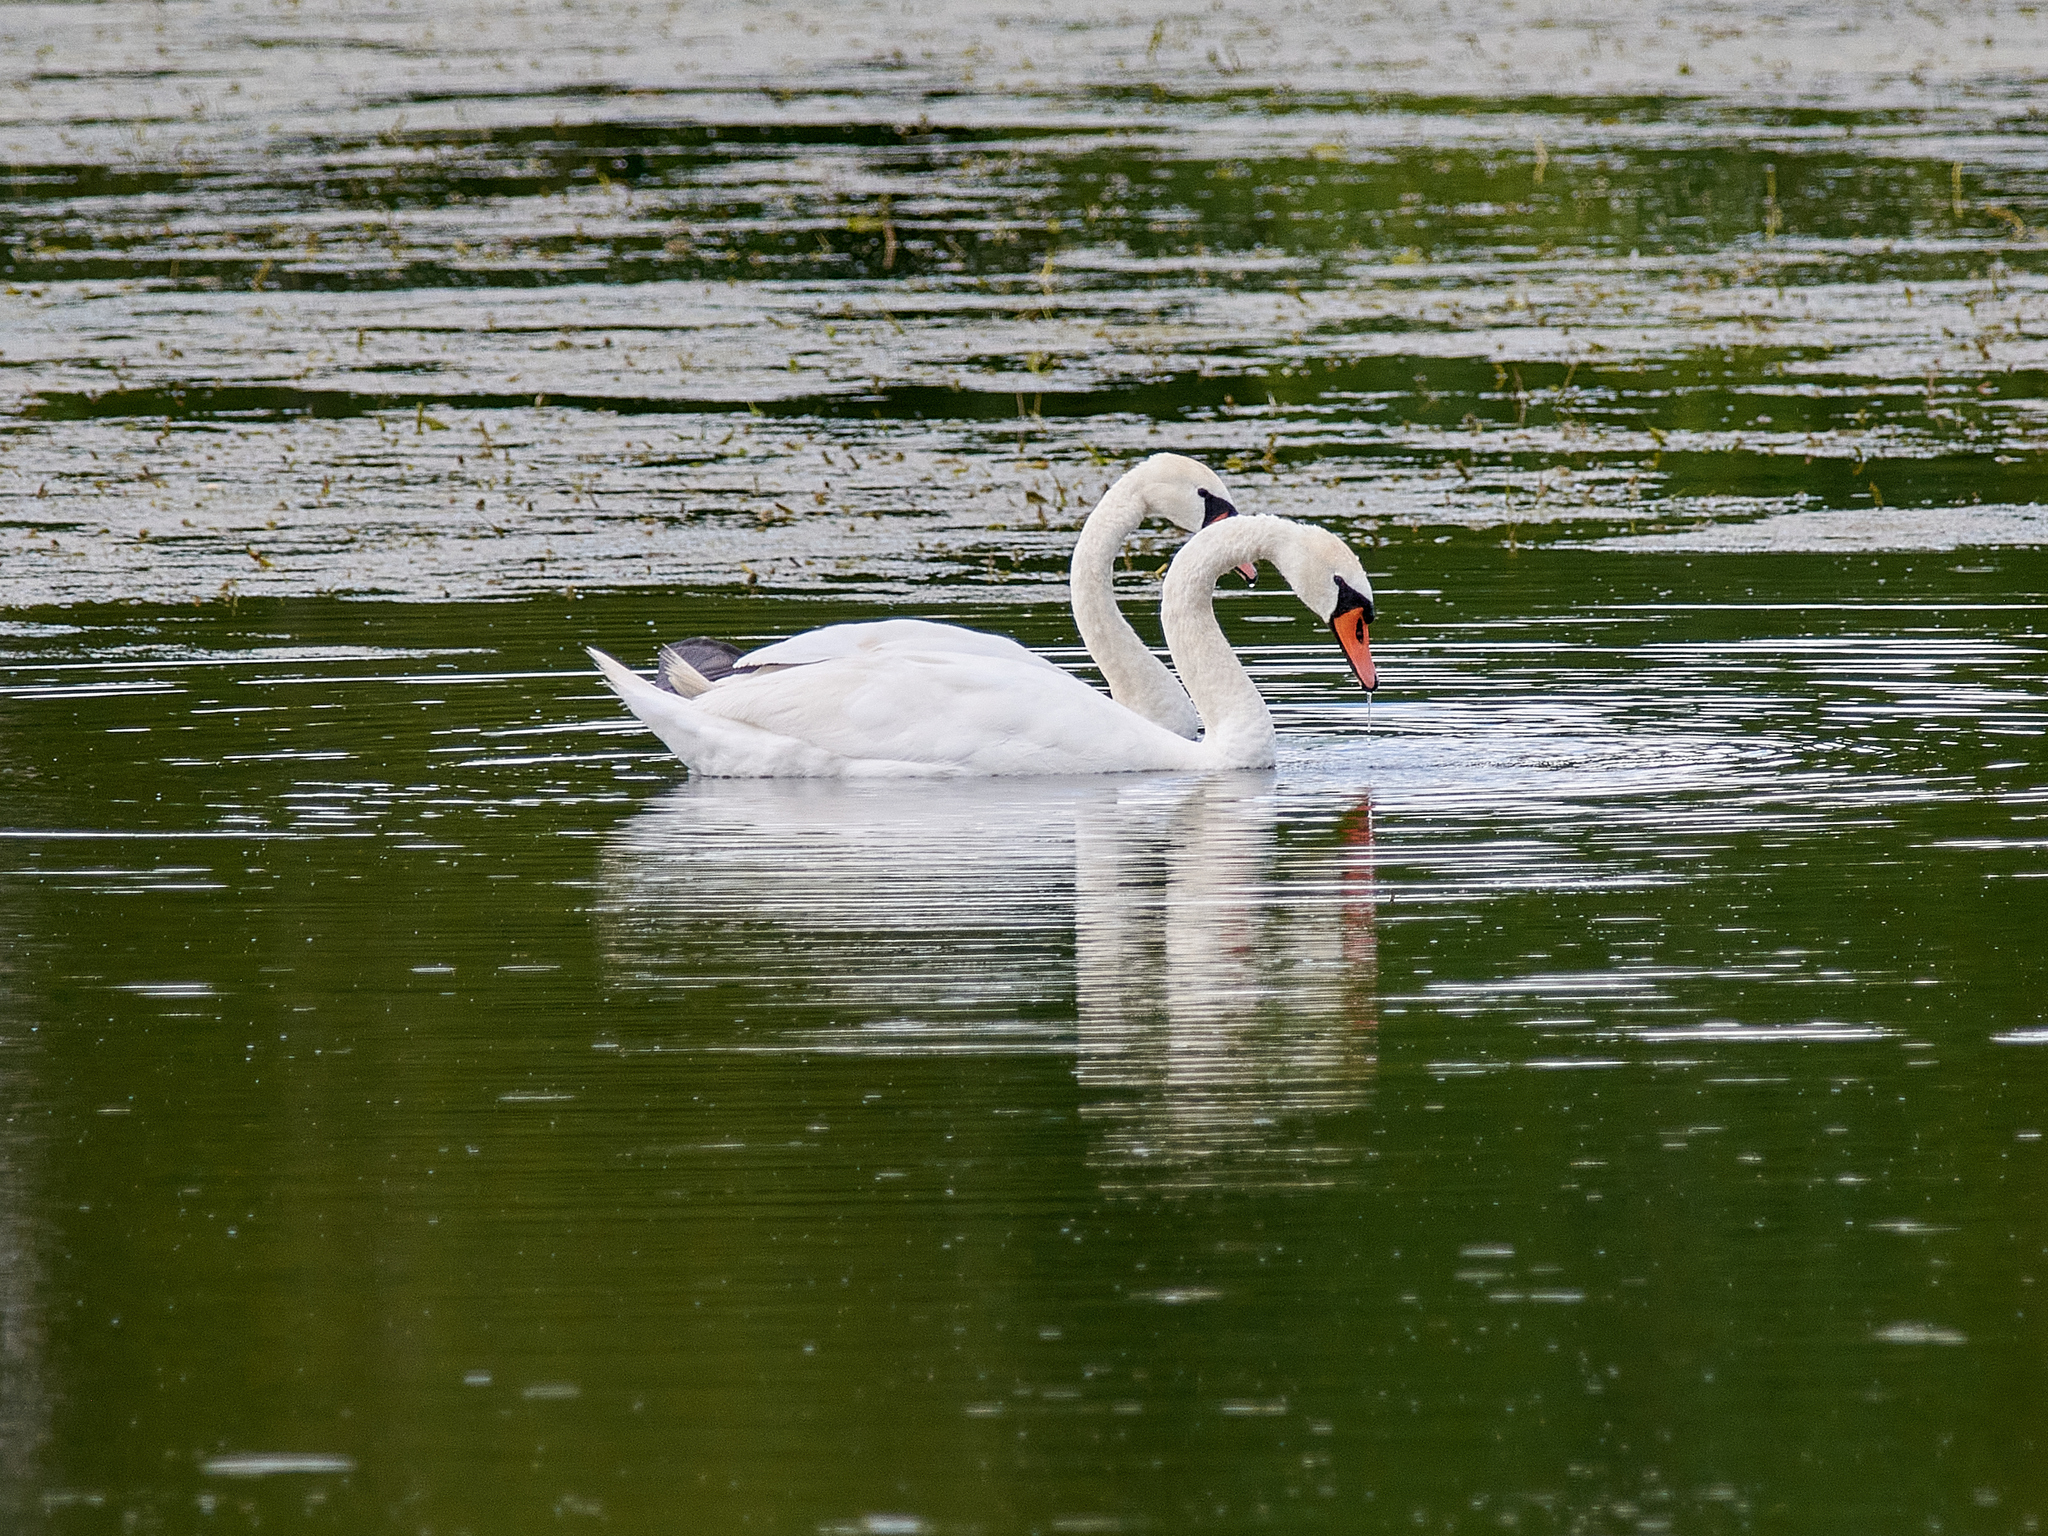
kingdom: Animalia
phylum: Chordata
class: Aves
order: Anseriformes
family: Anatidae
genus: Cygnus
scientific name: Cygnus olor
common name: Mute swan
